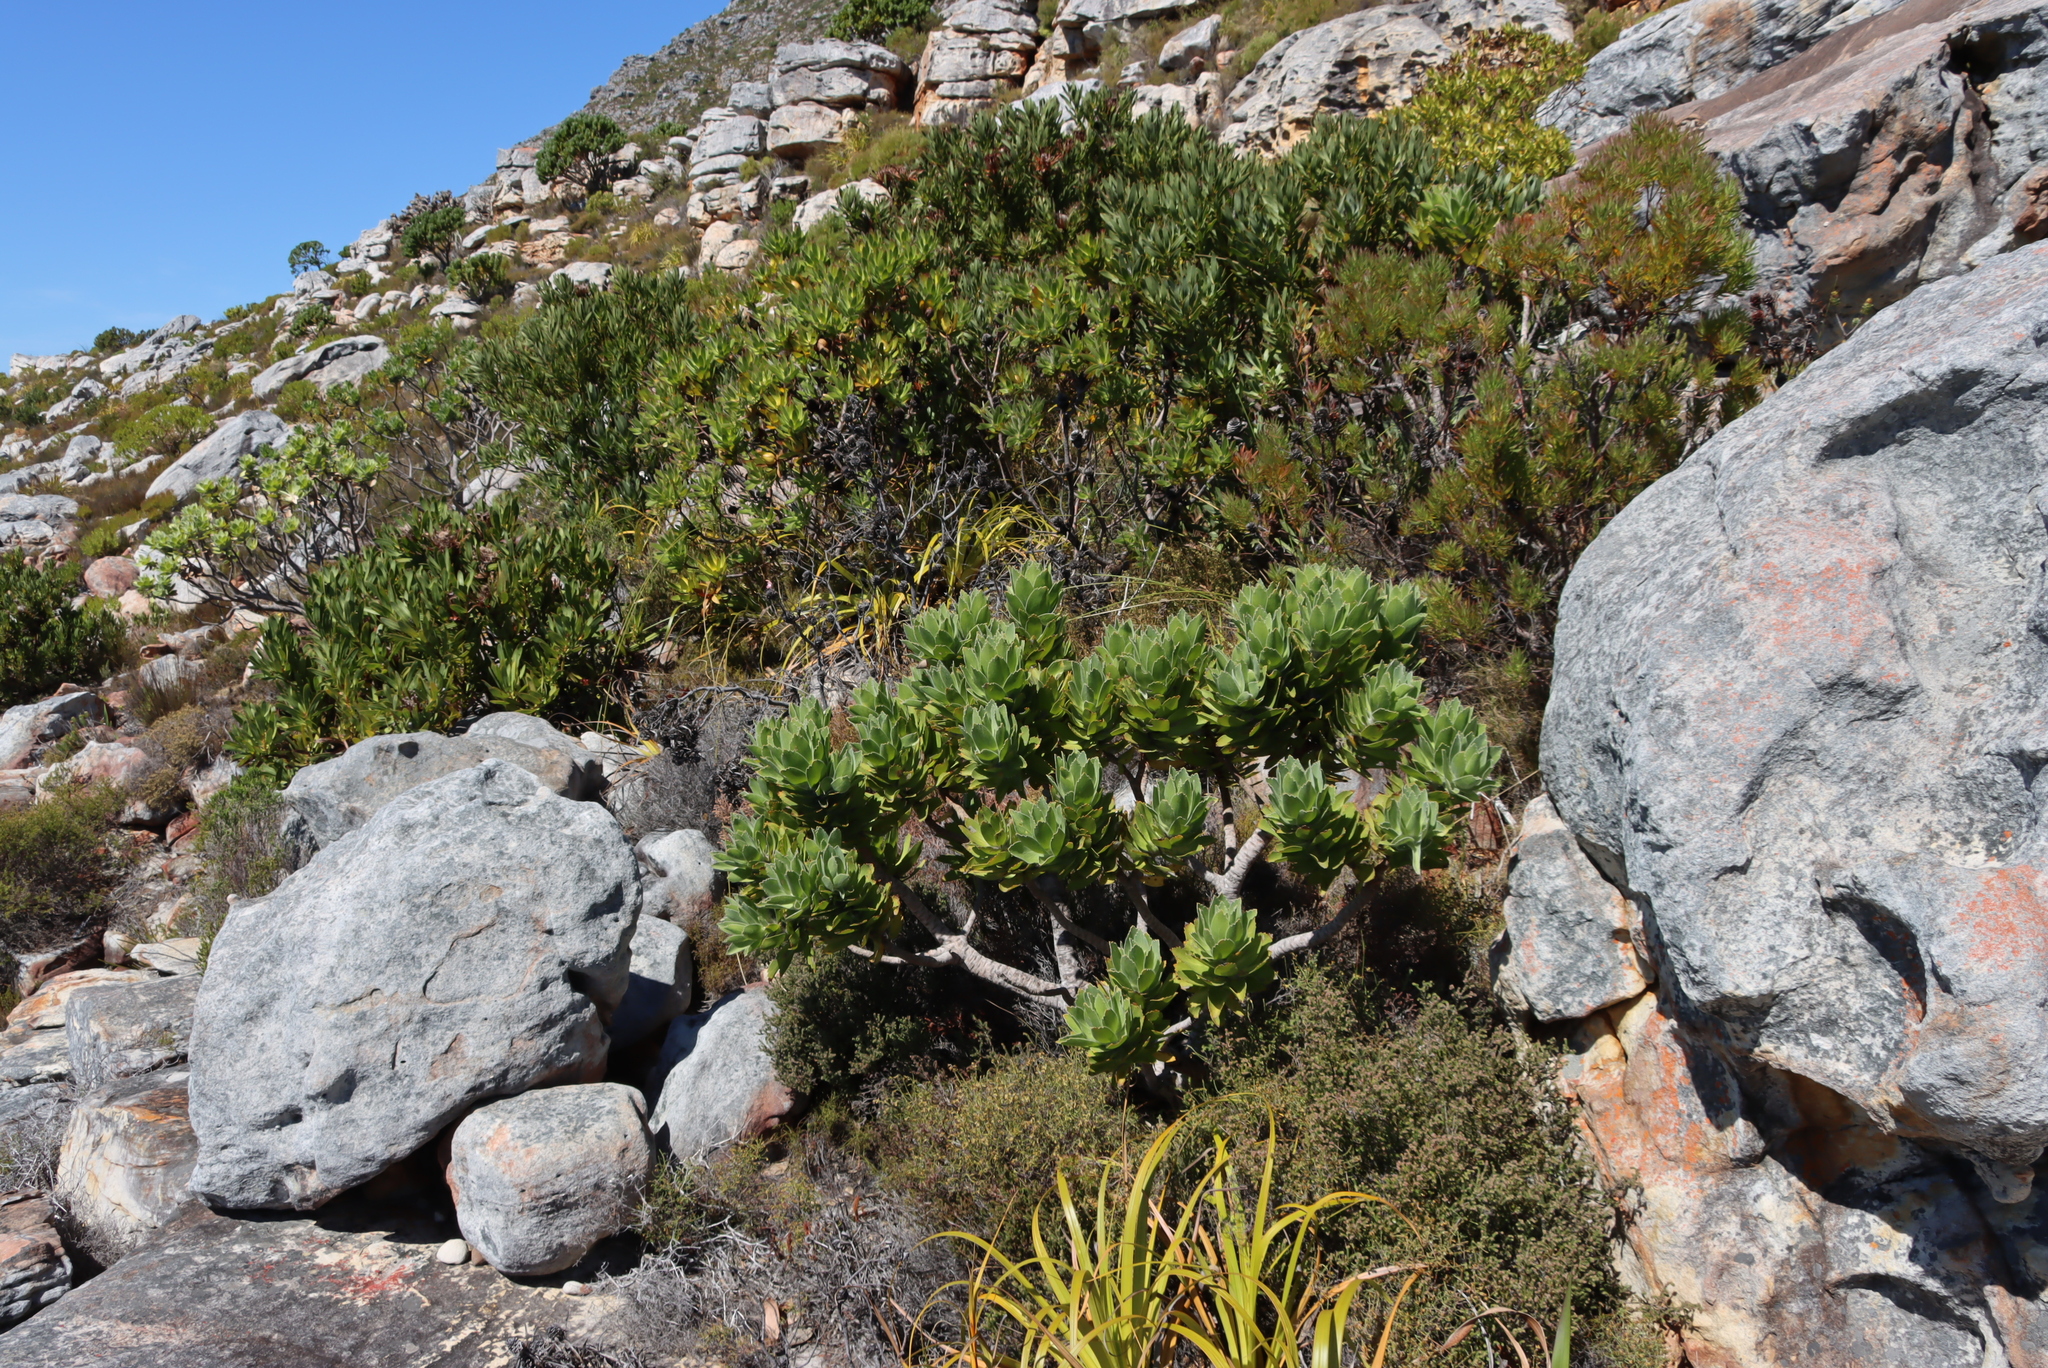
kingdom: Plantae
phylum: Tracheophyta
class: Magnoliopsida
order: Proteales
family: Proteaceae
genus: Leucospermum
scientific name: Leucospermum conocarpodendron
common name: Tree pincushion
